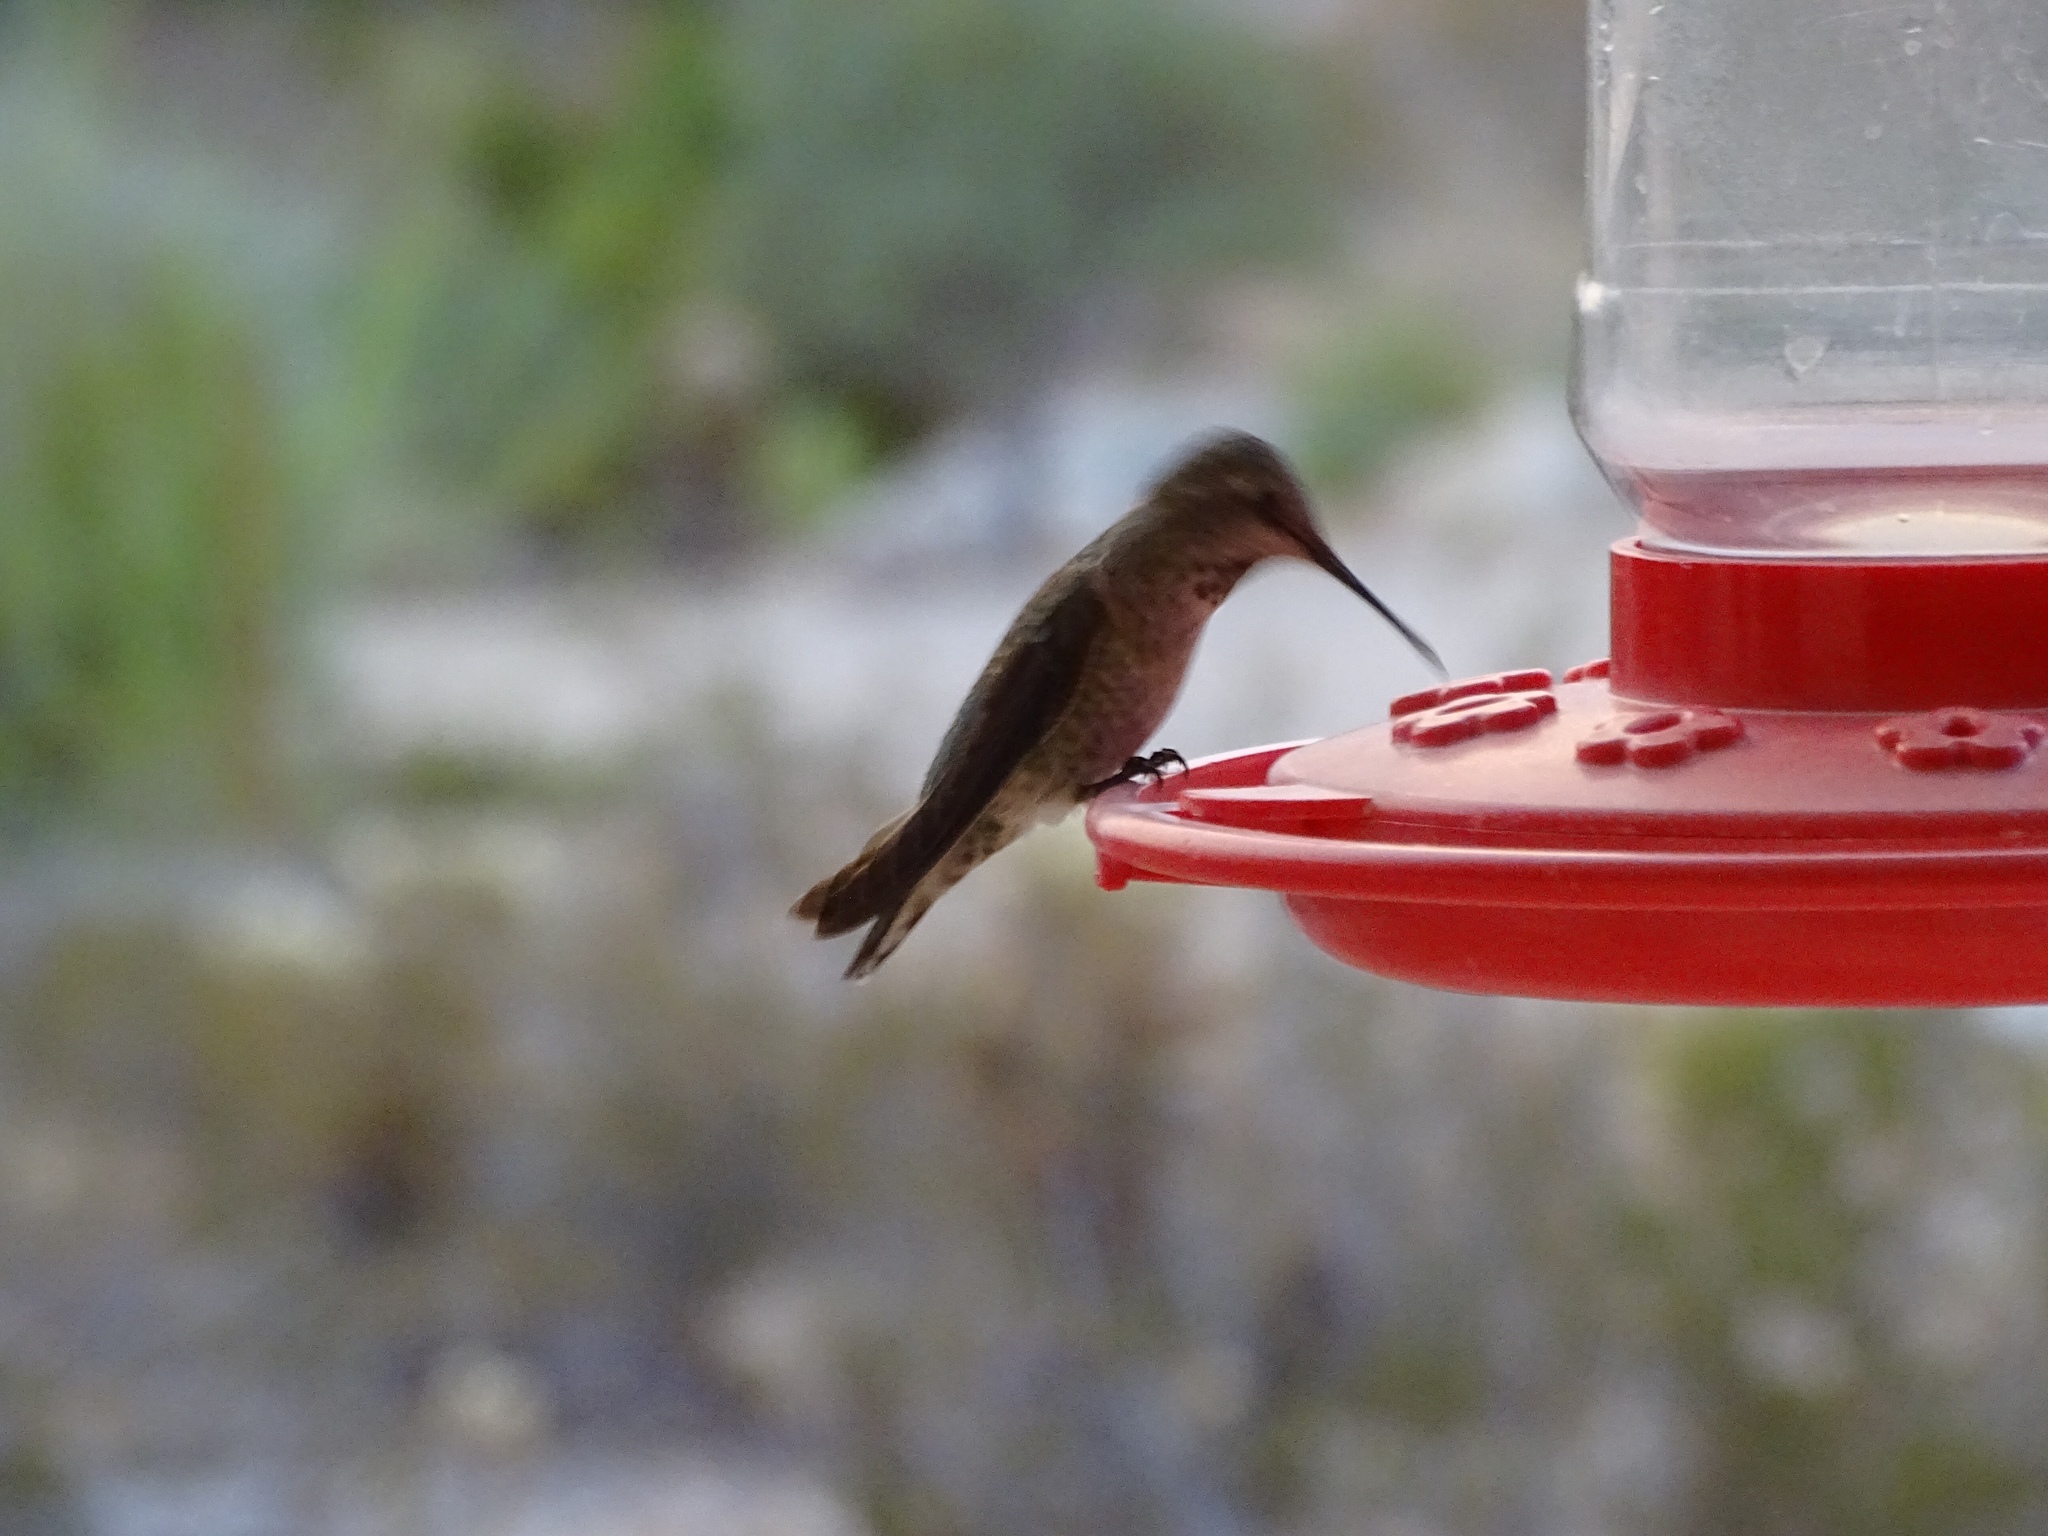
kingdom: Animalia
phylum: Chordata
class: Aves
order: Apodiformes
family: Trochilidae
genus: Calypte
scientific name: Calypte anna
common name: Anna's hummingbird
